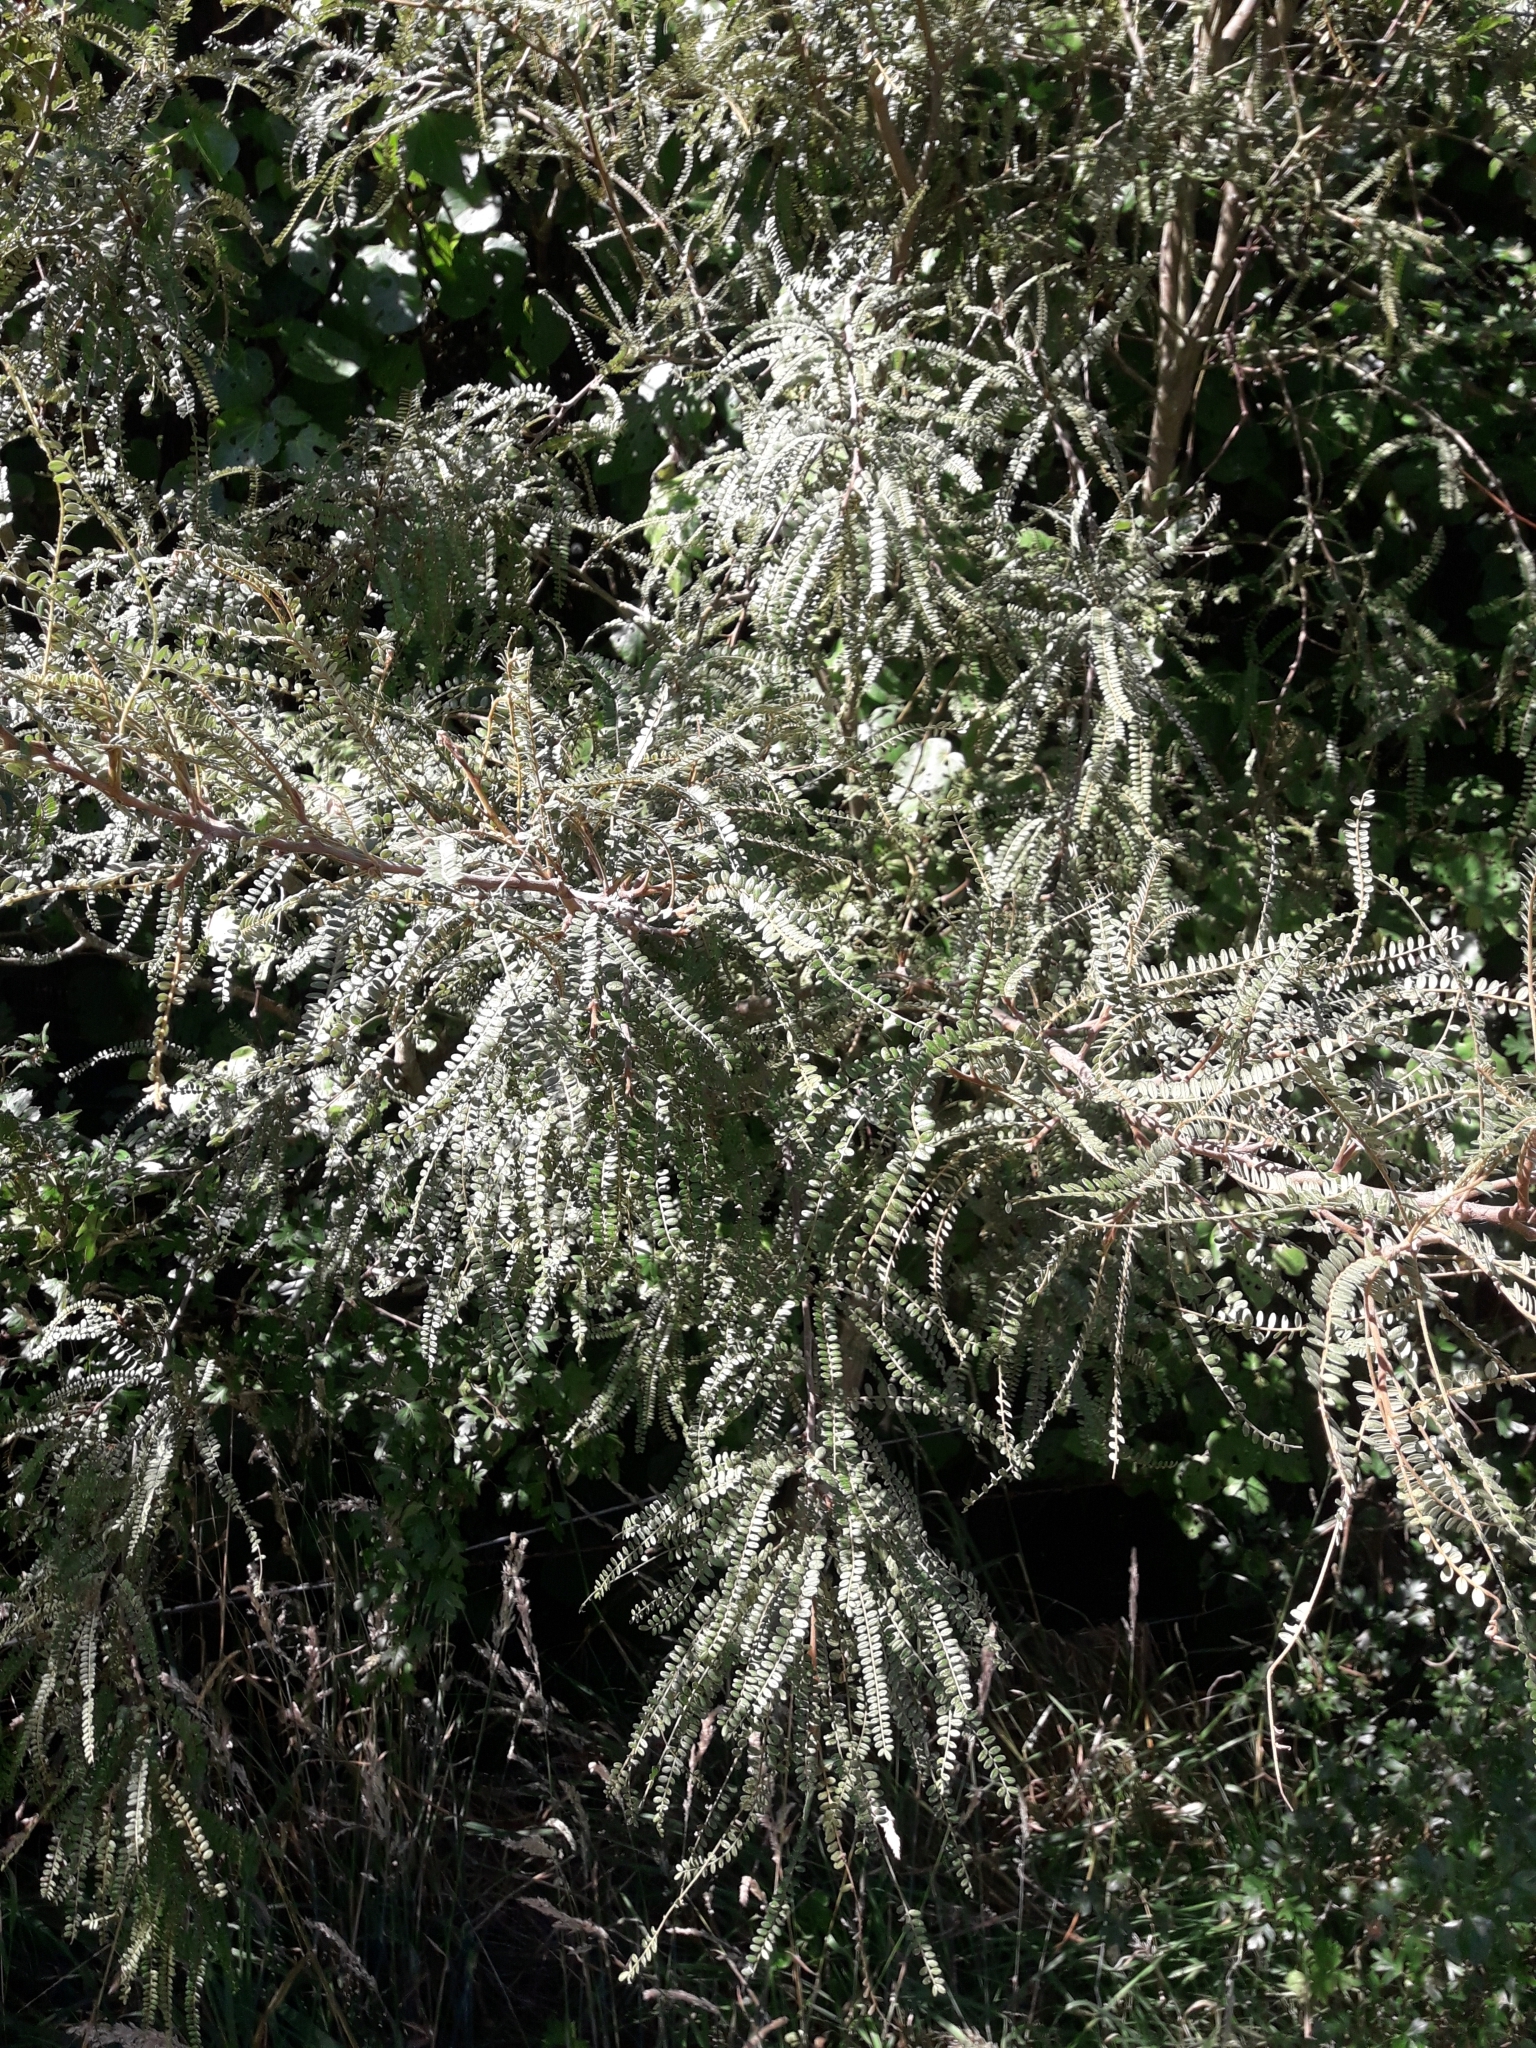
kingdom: Plantae
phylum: Tracheophyta
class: Magnoliopsida
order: Fabales
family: Fabaceae
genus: Sophora
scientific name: Sophora godleyi
